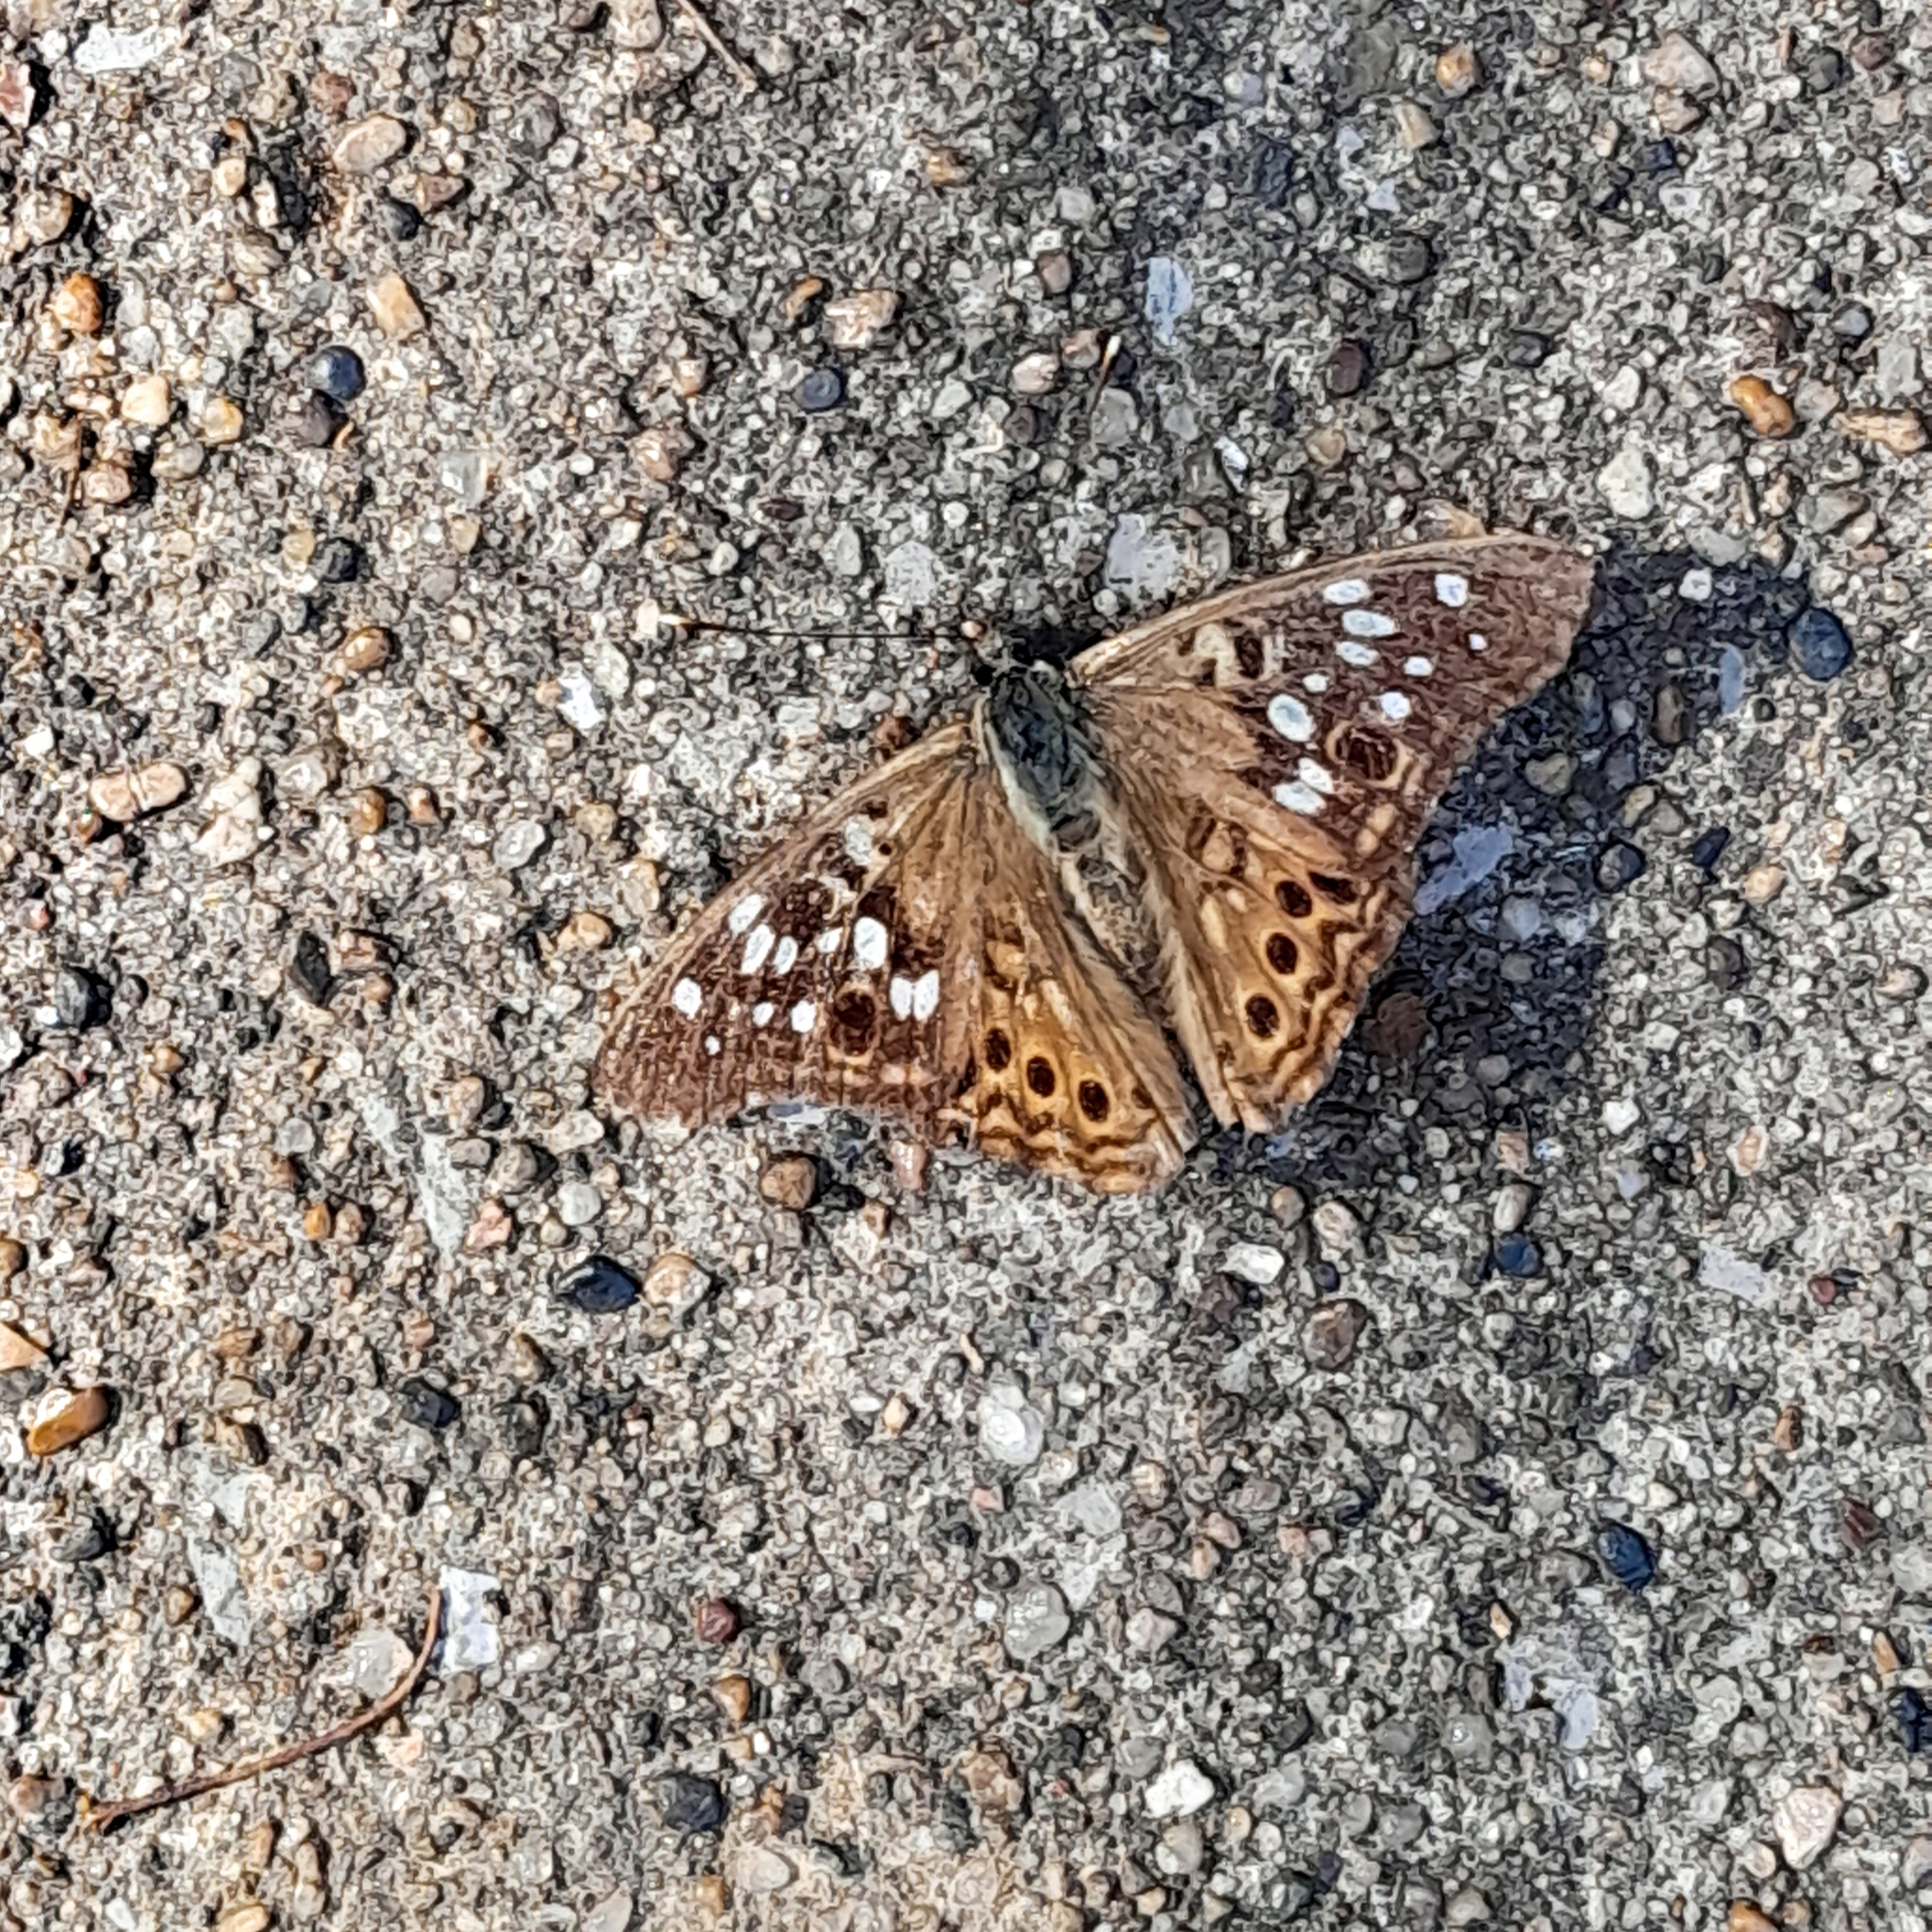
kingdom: Animalia
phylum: Arthropoda
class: Insecta
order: Lepidoptera
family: Nymphalidae
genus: Asterocampa
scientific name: Asterocampa celtis
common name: Hackberry emperor
